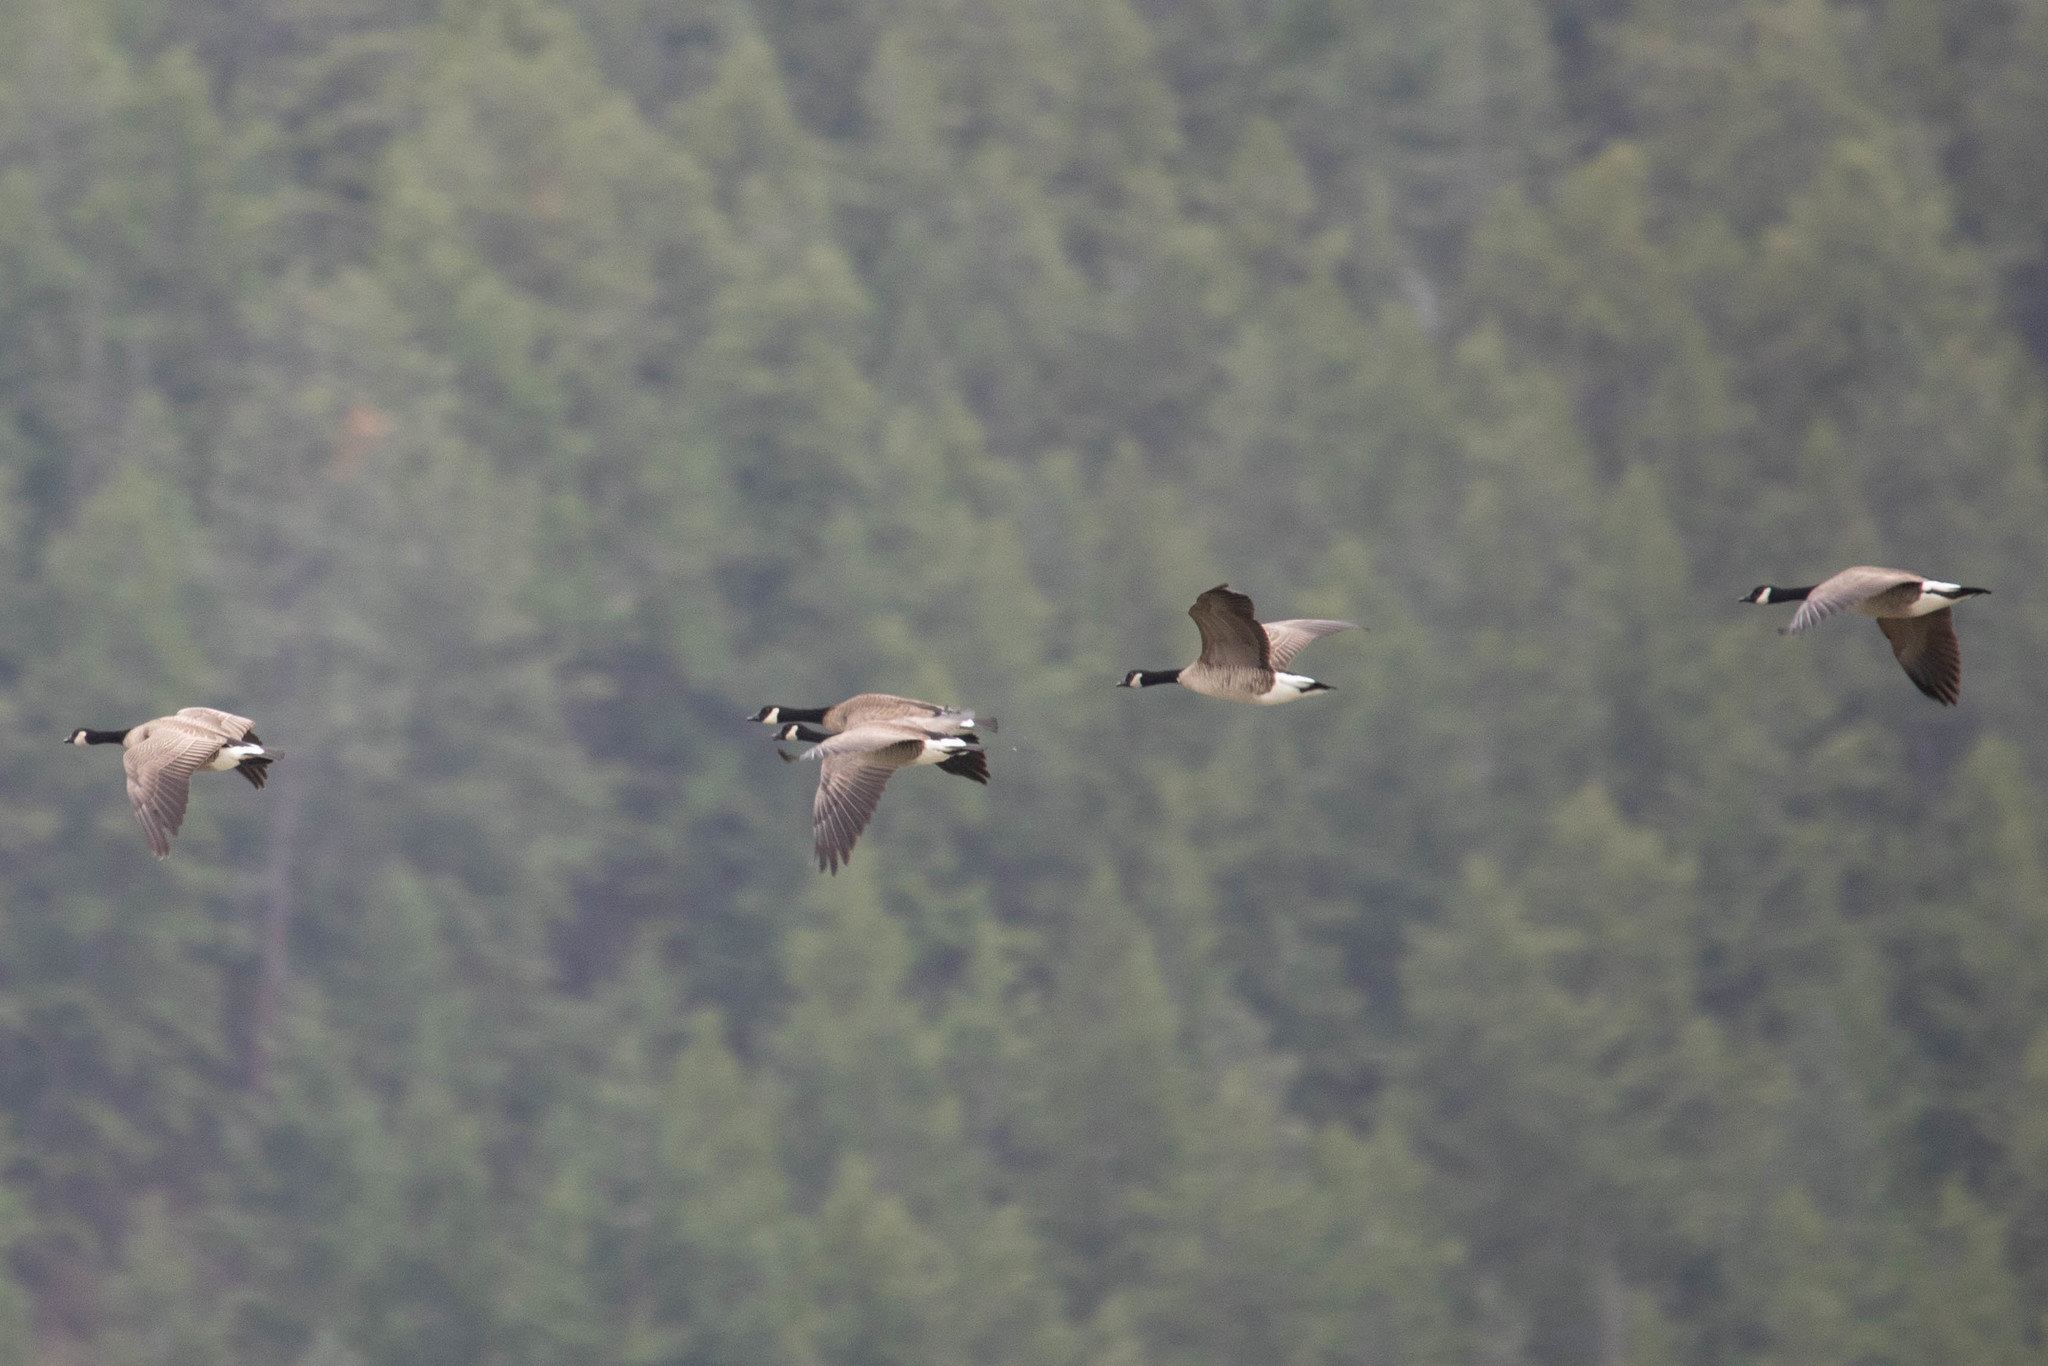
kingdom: Animalia
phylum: Chordata
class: Aves
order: Anseriformes
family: Anatidae
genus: Branta
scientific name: Branta canadensis
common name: Canada goose
